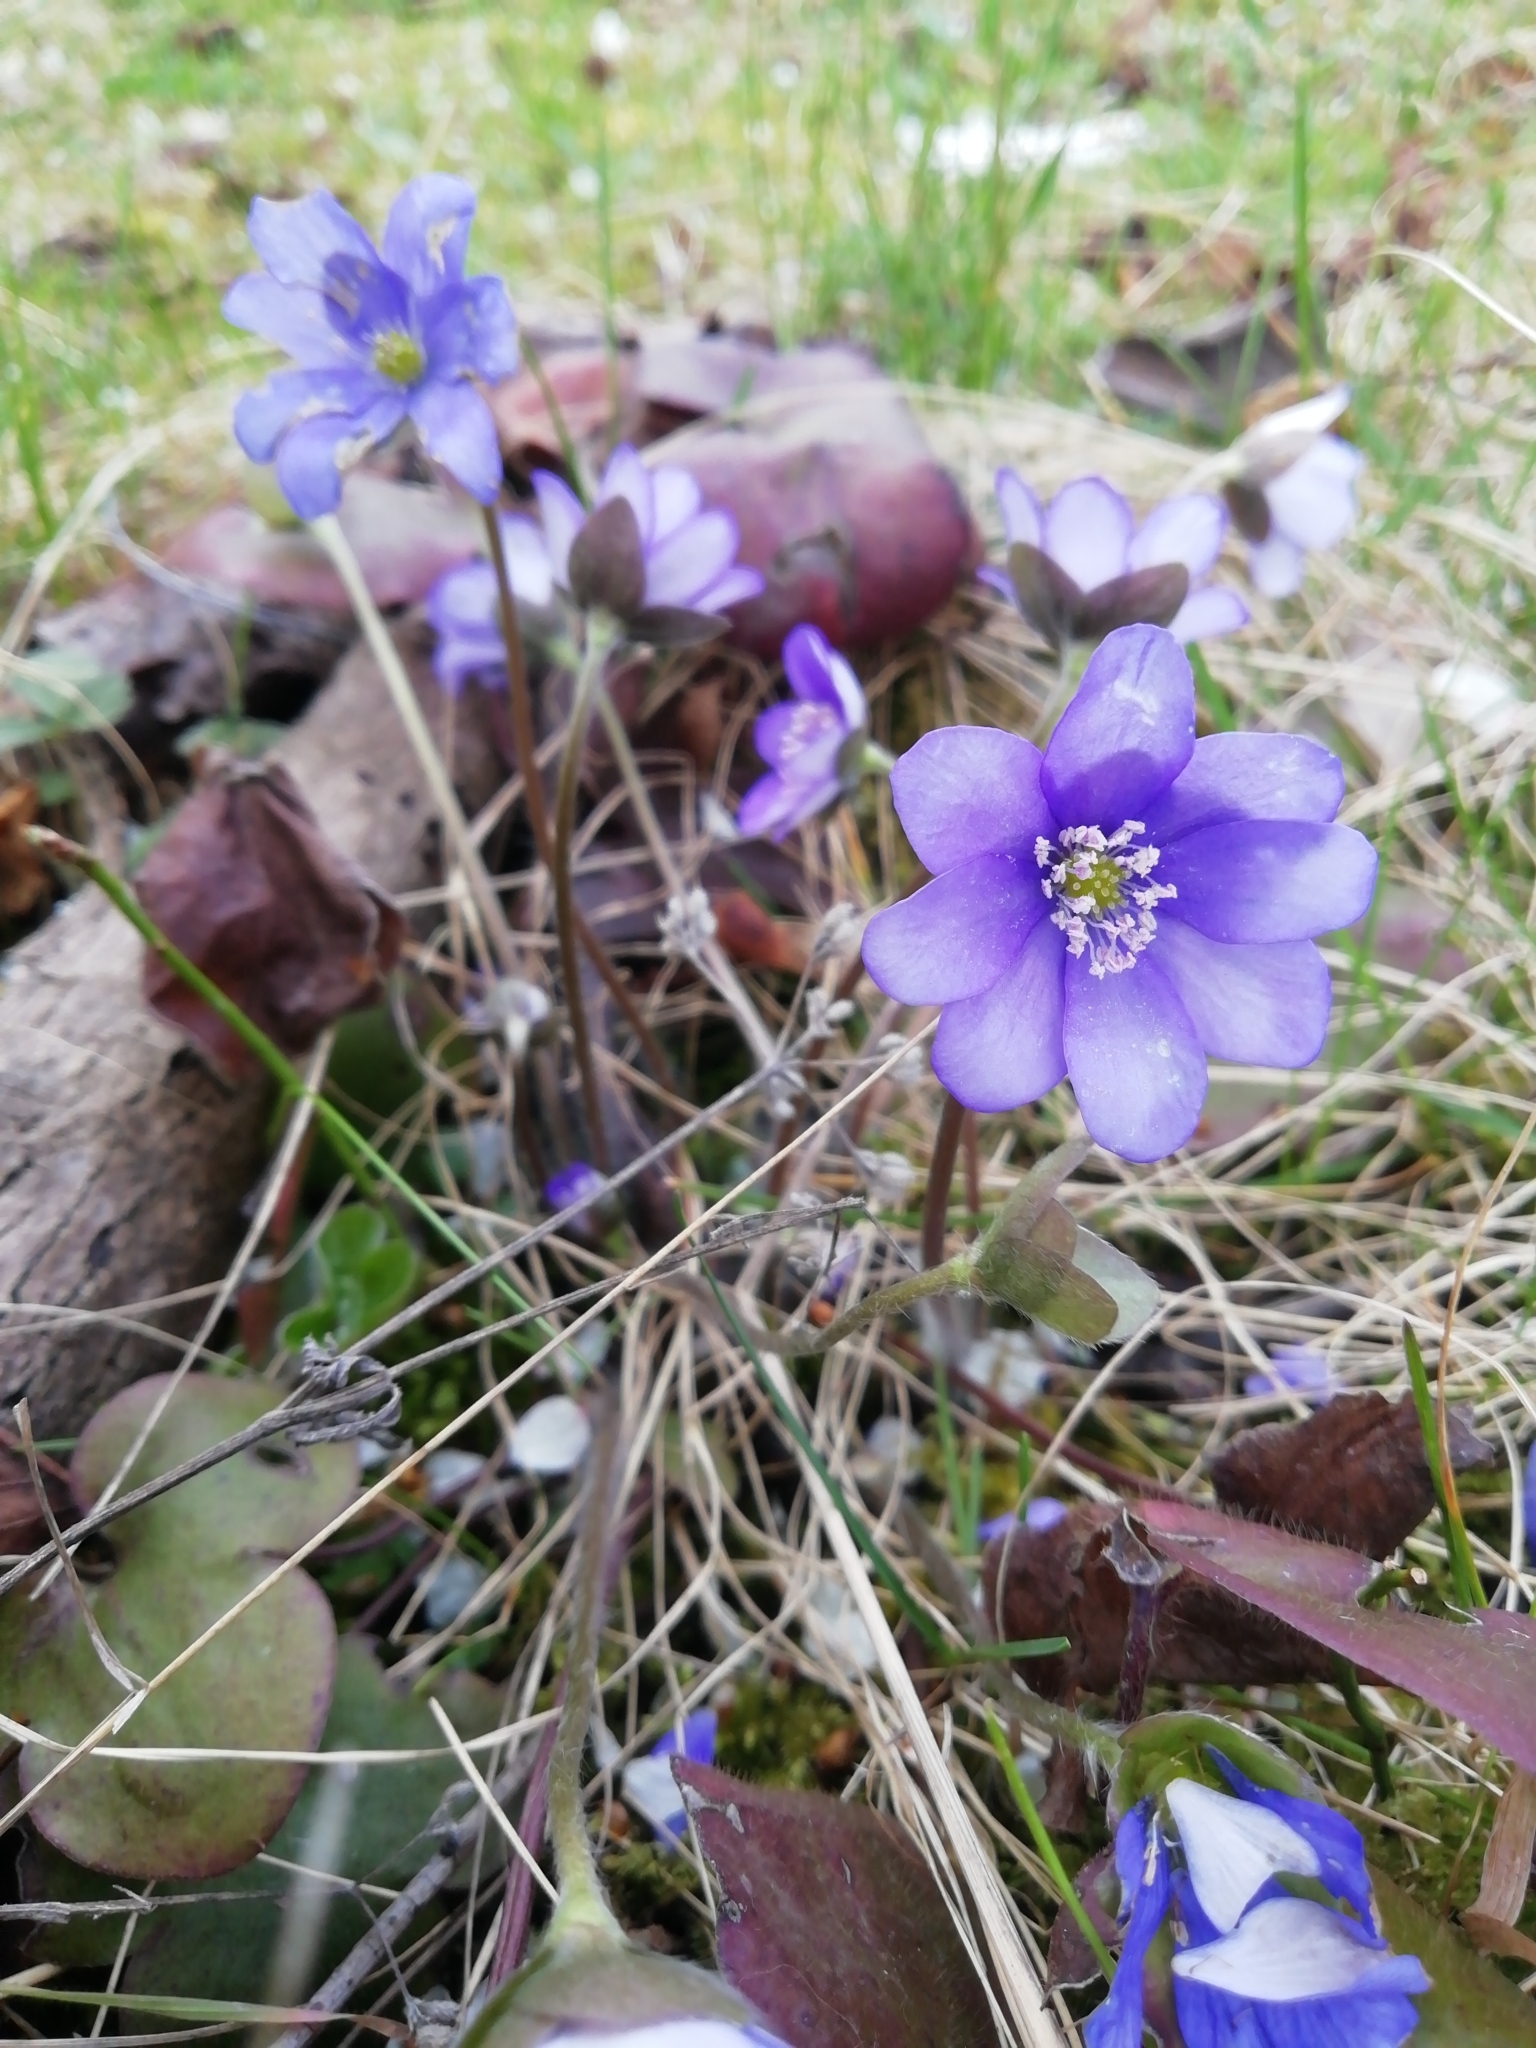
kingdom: Plantae
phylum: Tracheophyta
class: Magnoliopsida
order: Ranunculales
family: Ranunculaceae
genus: Hepatica
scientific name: Hepatica nobilis
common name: Liverleaf
